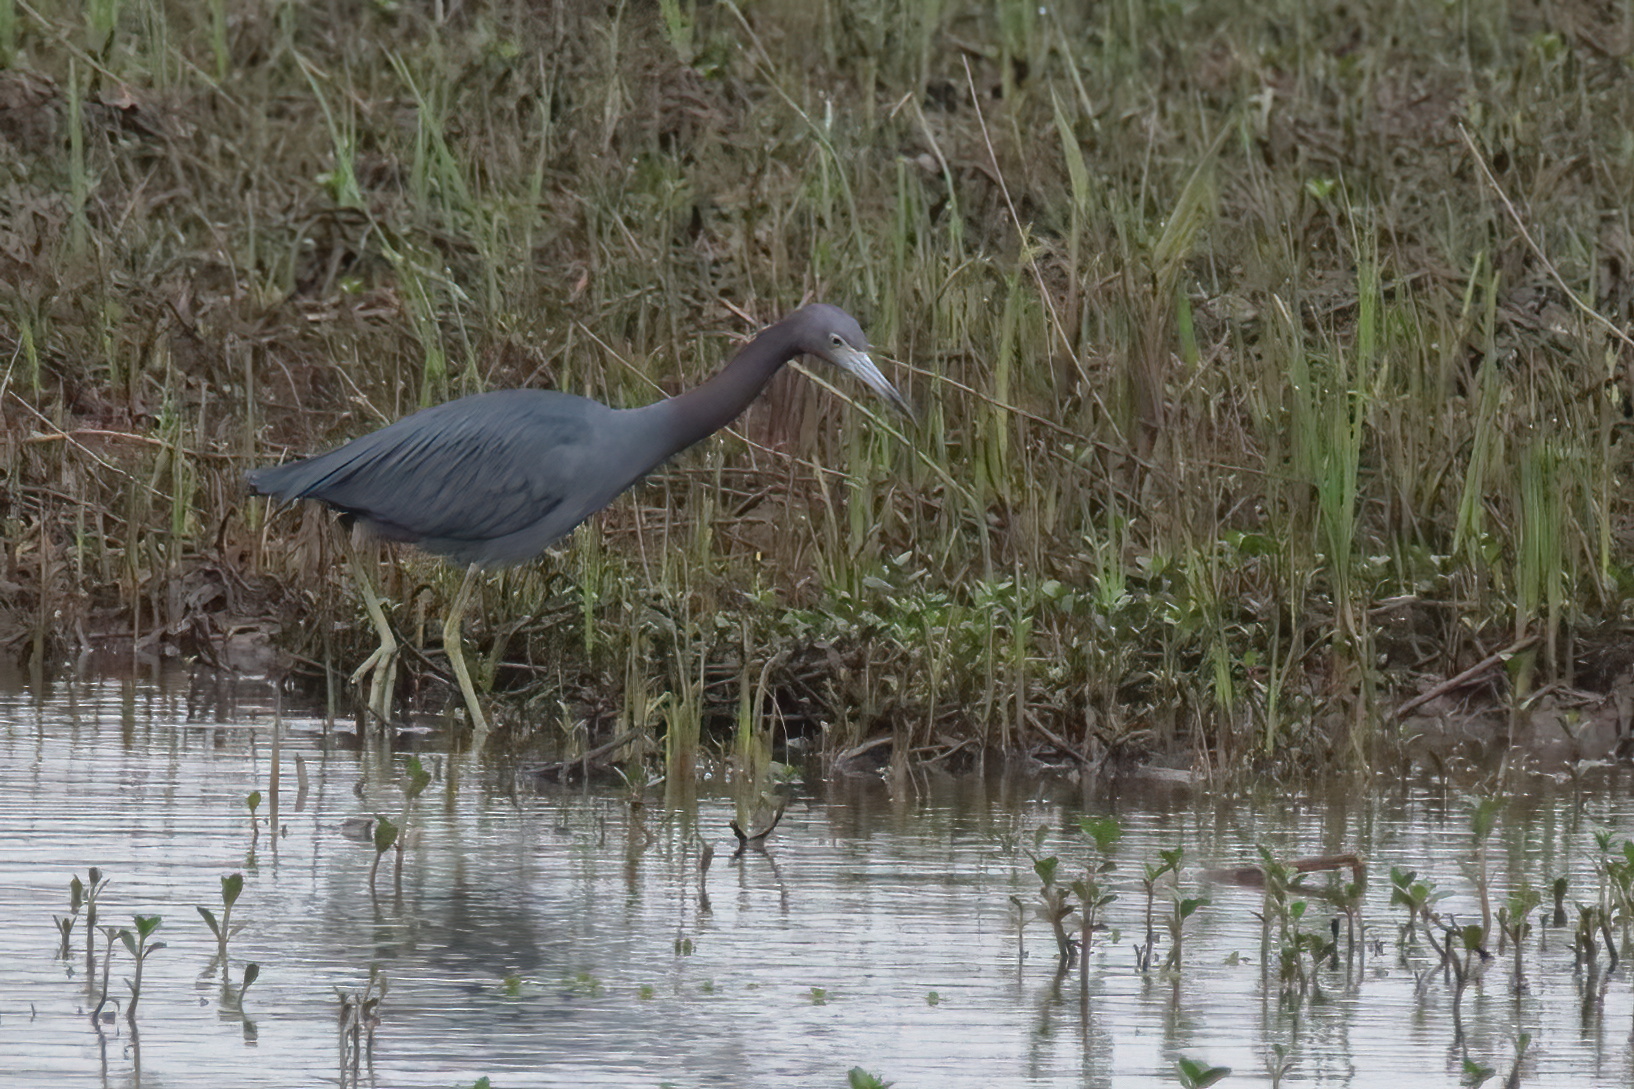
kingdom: Animalia
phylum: Chordata
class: Aves
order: Pelecaniformes
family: Ardeidae
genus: Egretta
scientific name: Egretta caerulea
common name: Little blue heron
